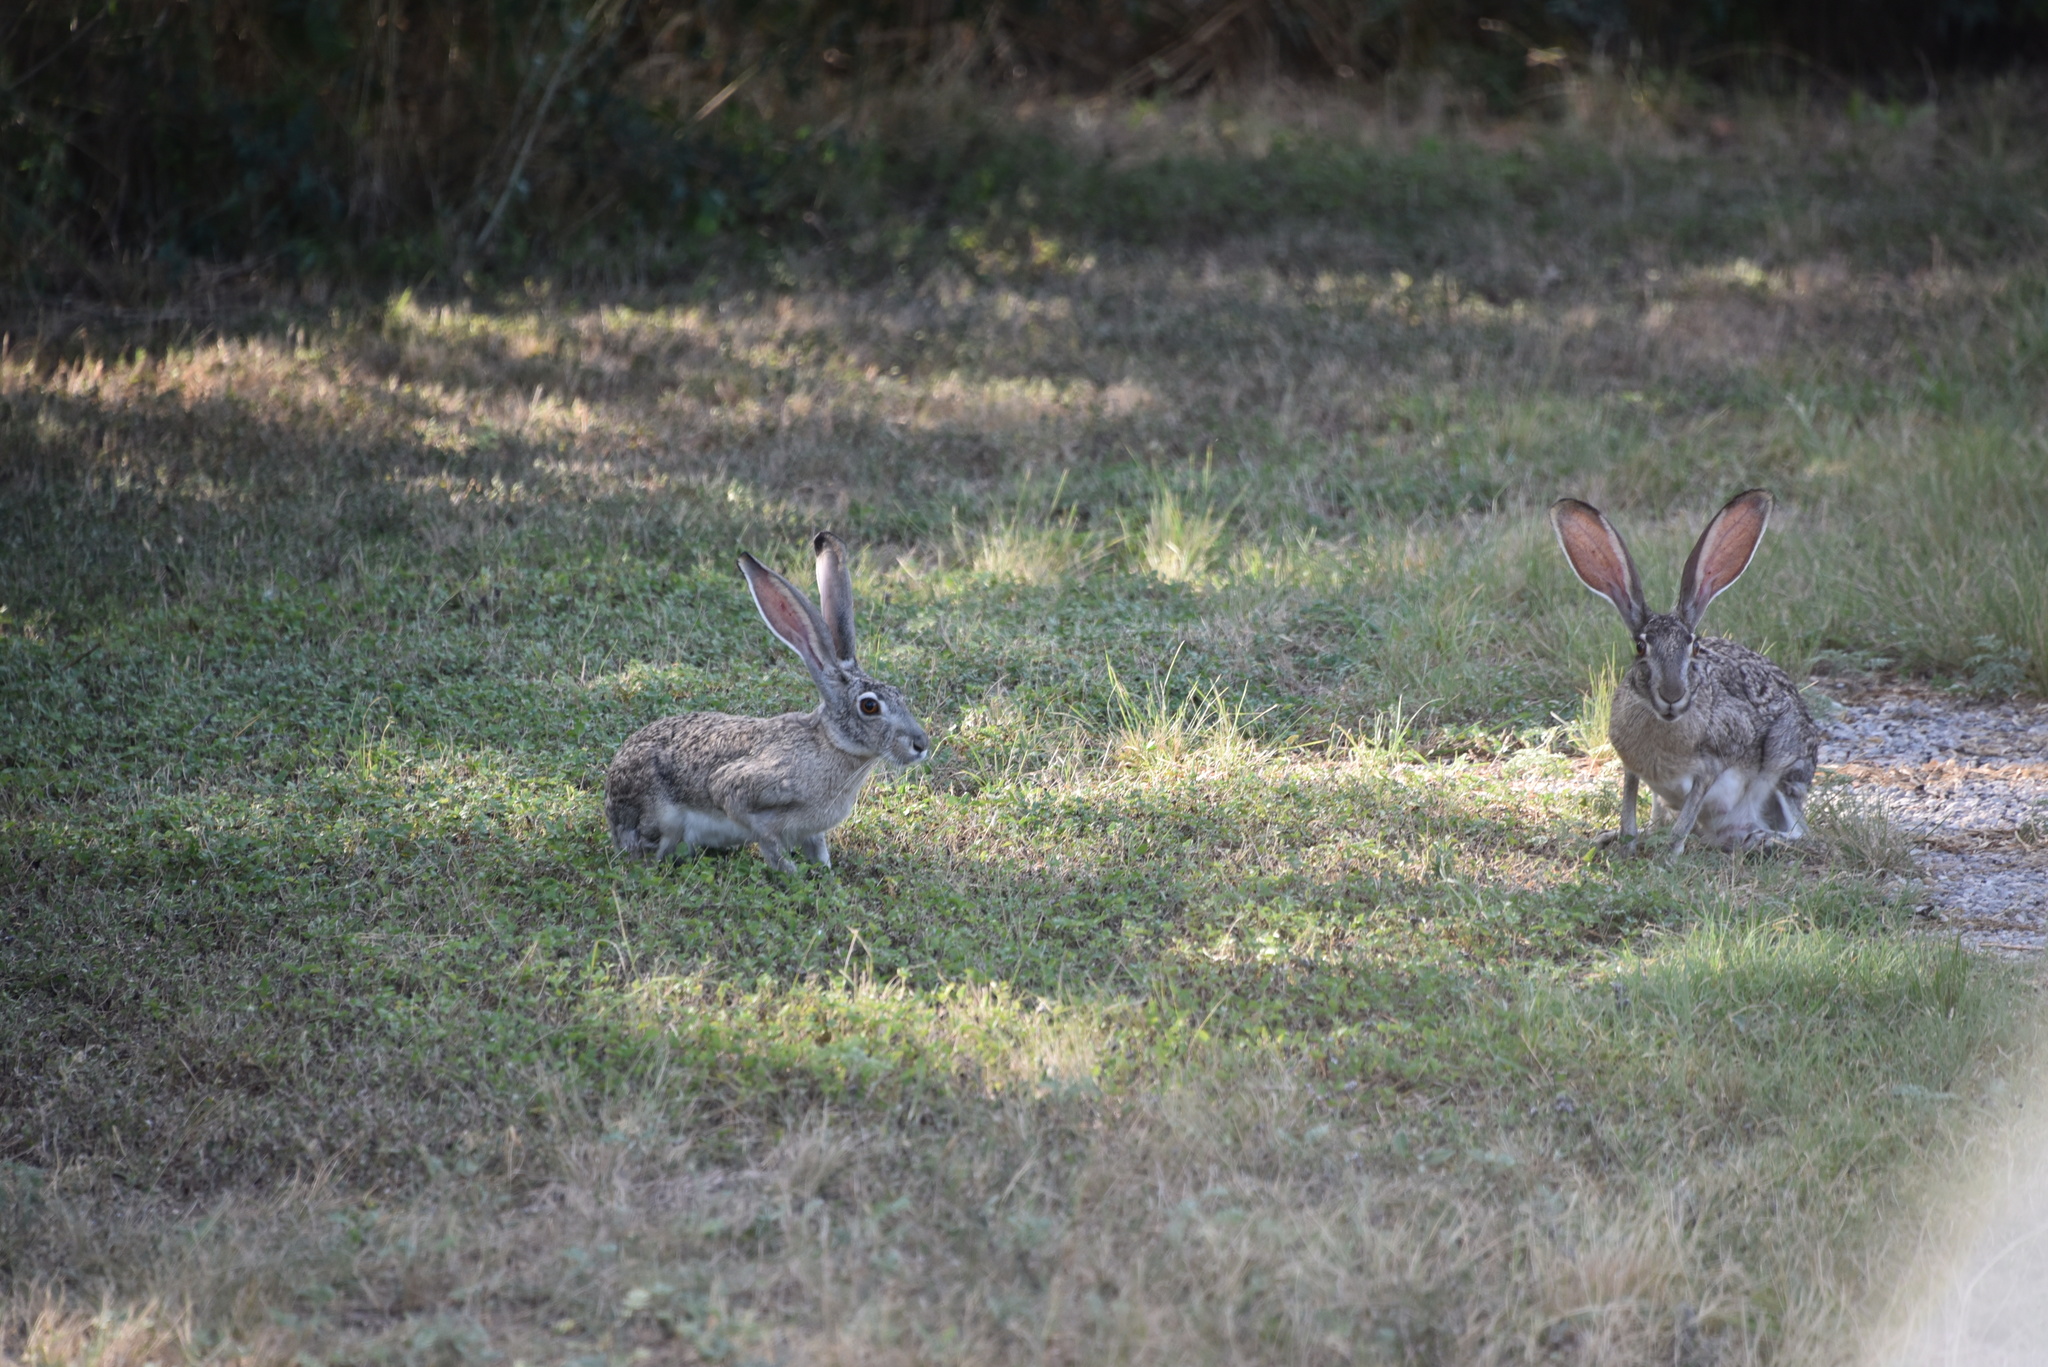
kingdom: Animalia
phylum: Chordata
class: Mammalia
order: Lagomorpha
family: Leporidae
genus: Lepus
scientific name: Lepus californicus
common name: Black-tailed jackrabbit
